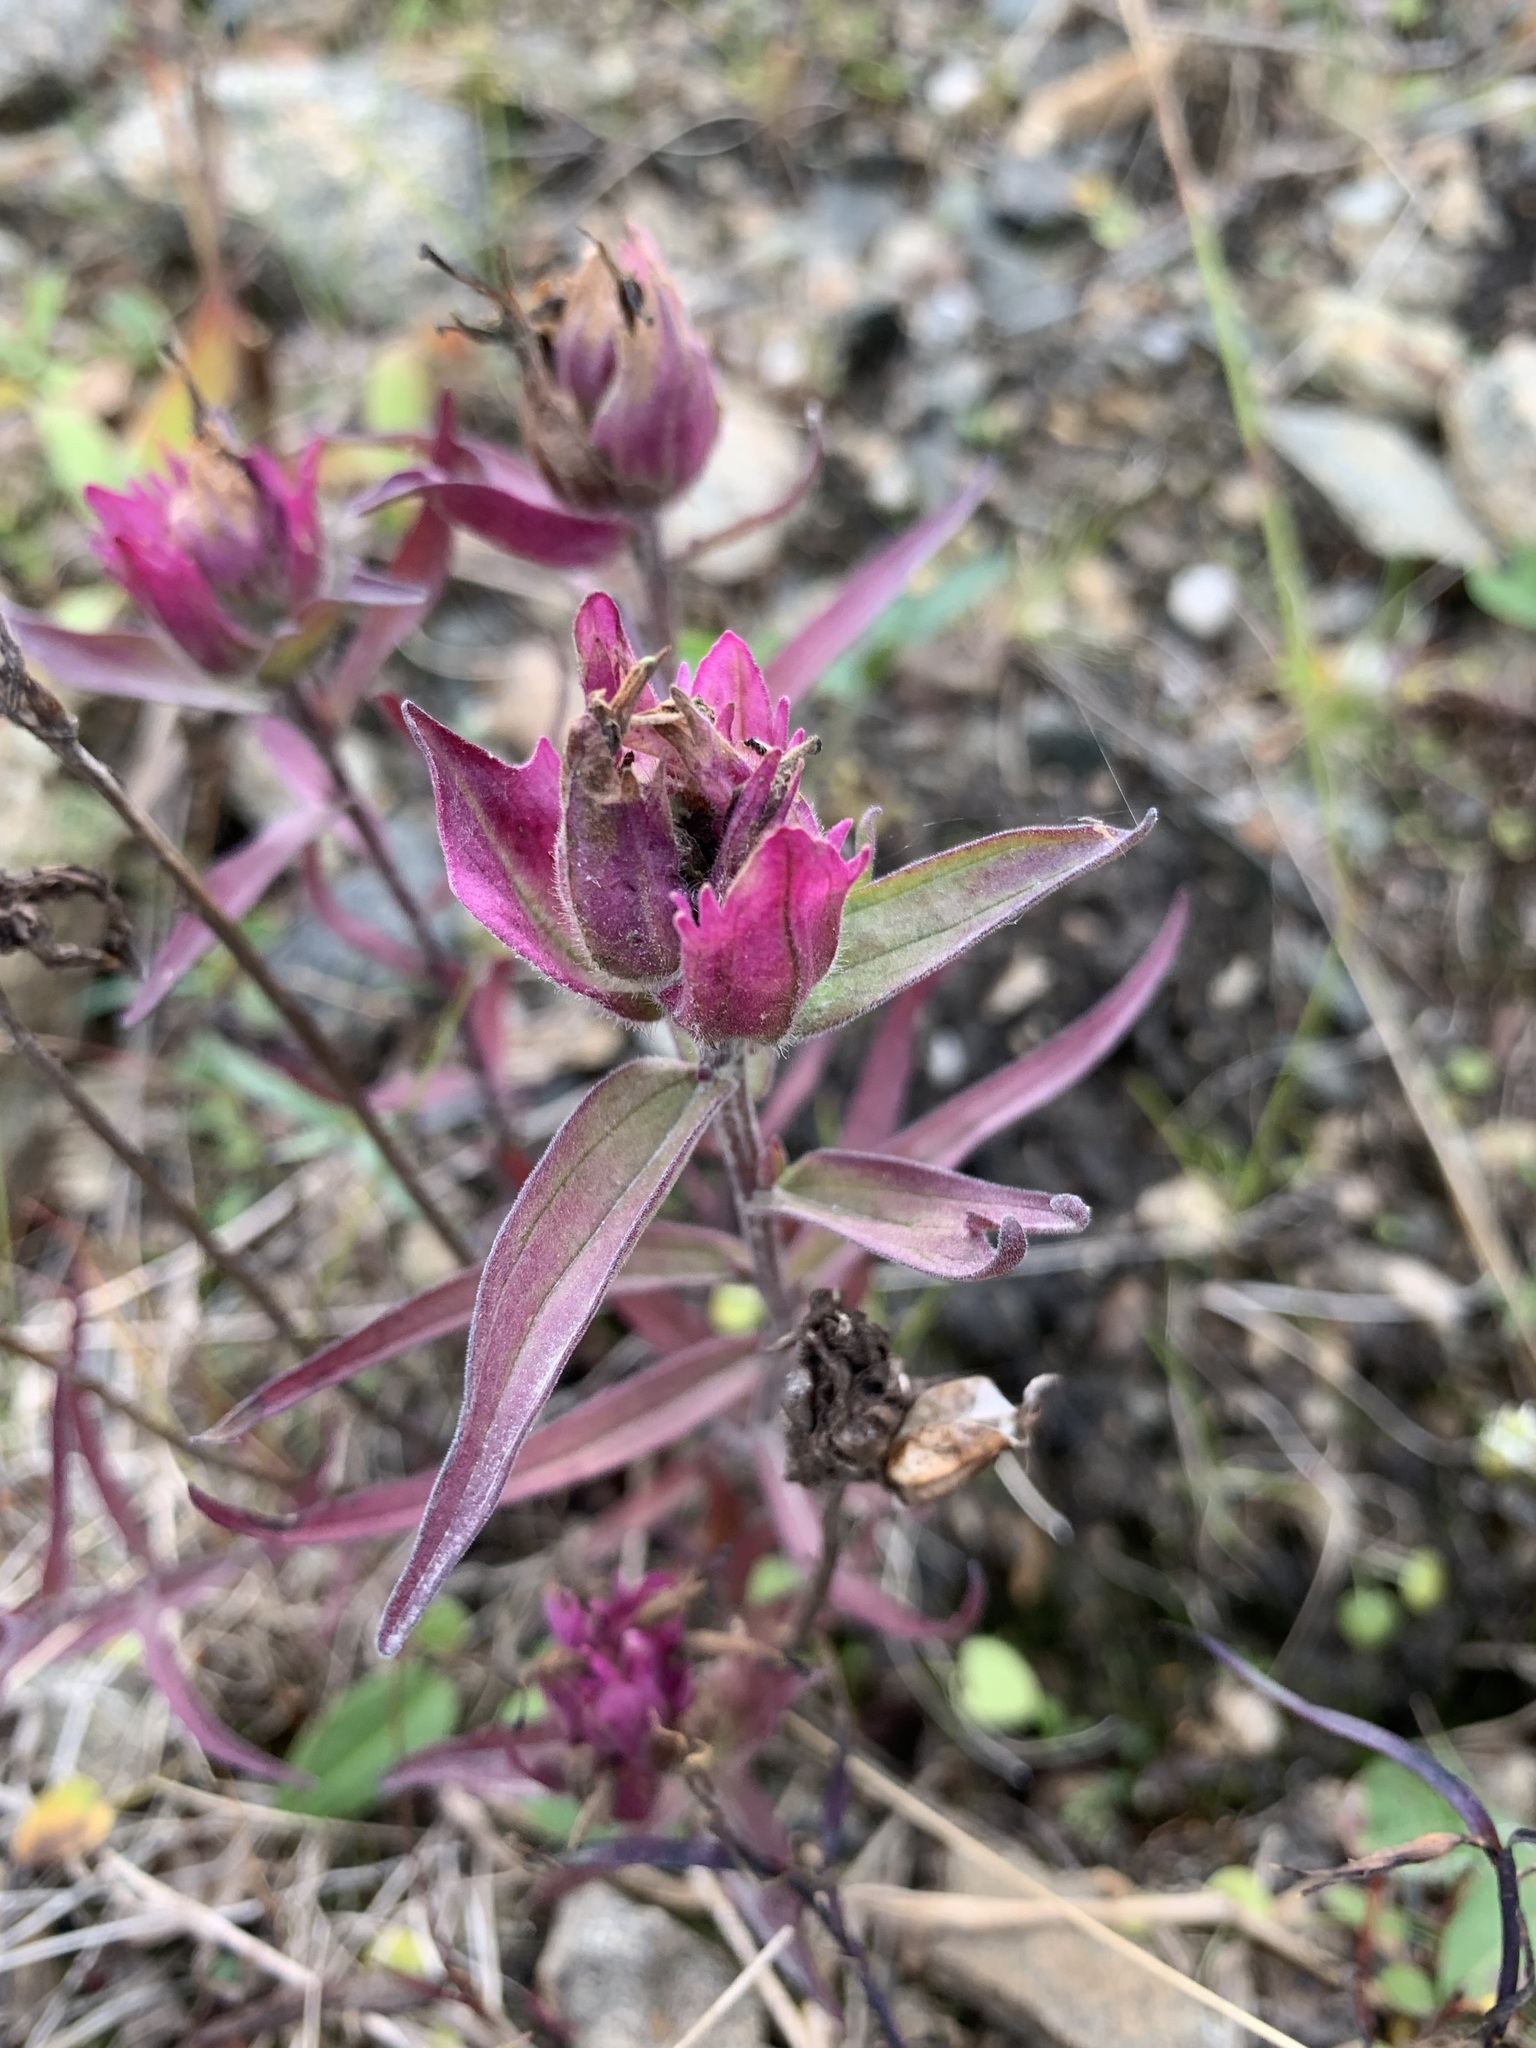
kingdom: Plantae
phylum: Tracheophyta
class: Magnoliopsida
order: Lamiales
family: Orobanchaceae
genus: Castilleja
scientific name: Castilleja arctica
